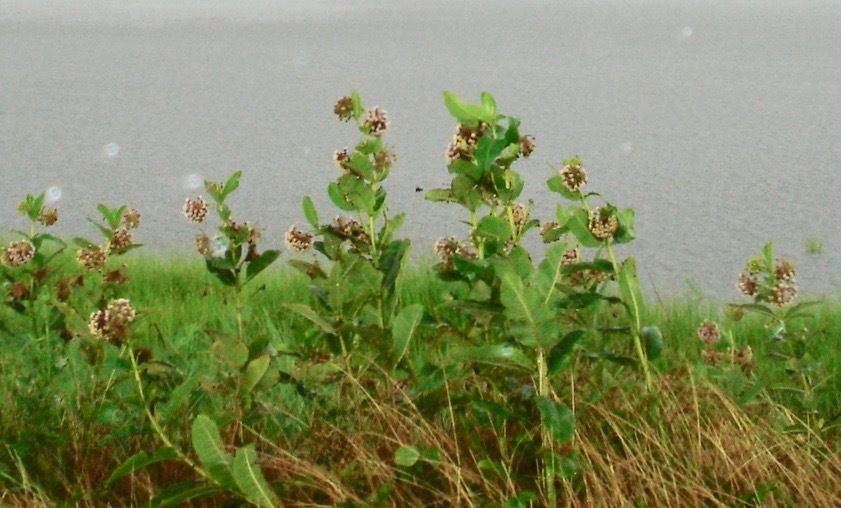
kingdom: Plantae
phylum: Tracheophyta
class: Magnoliopsida
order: Gentianales
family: Apocynaceae
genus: Asclepias
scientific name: Asclepias syriaca
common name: Common milkweed
